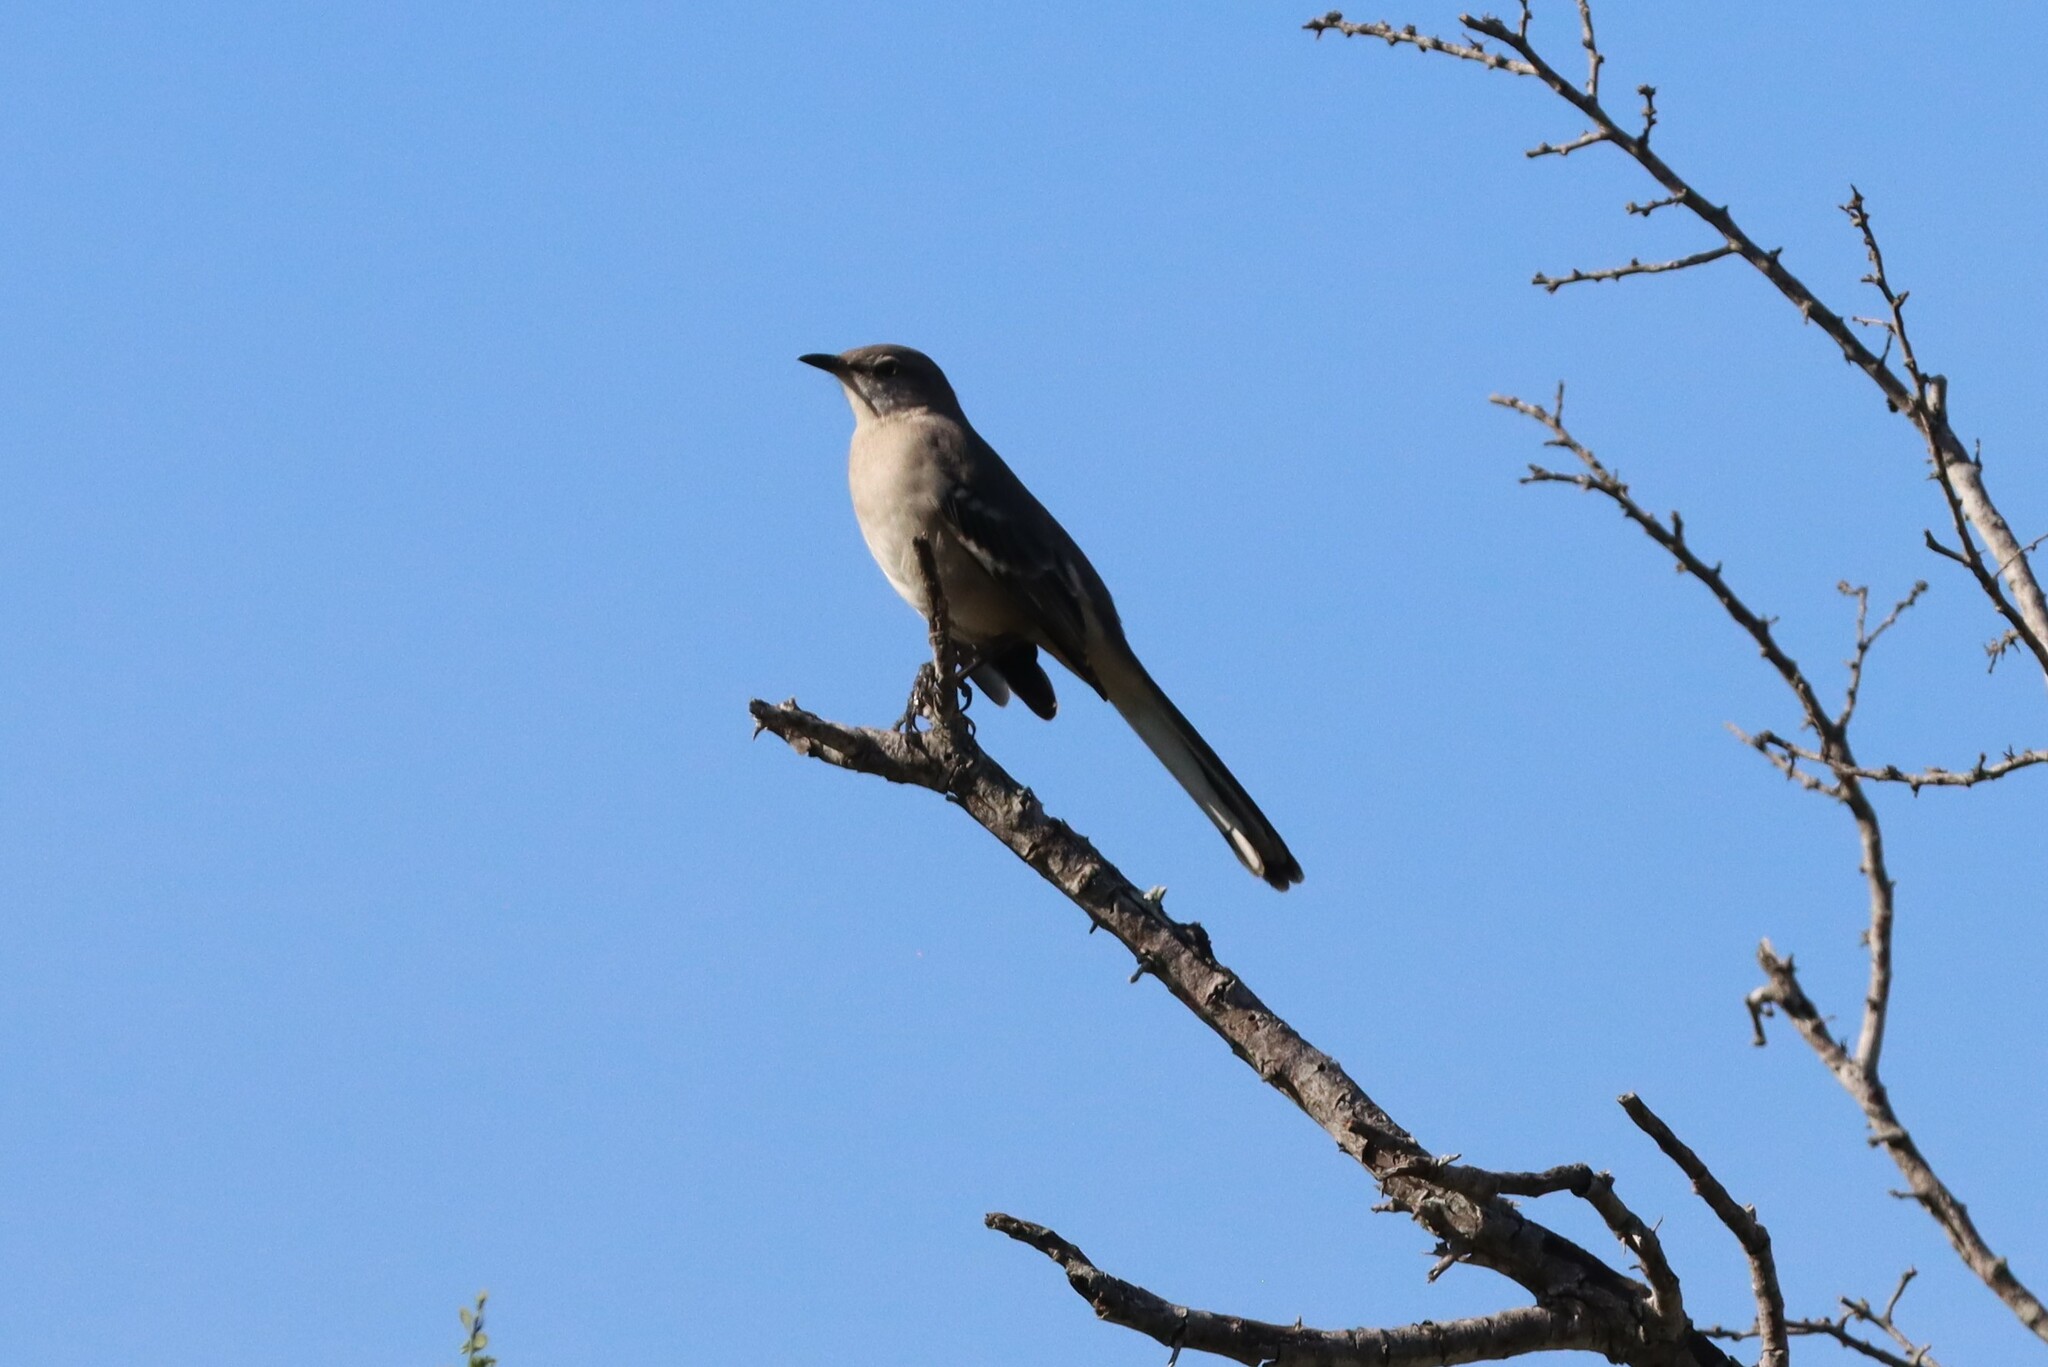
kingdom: Animalia
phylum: Chordata
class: Aves
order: Passeriformes
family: Mimidae
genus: Mimus
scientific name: Mimus polyglottos
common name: Northern mockingbird
